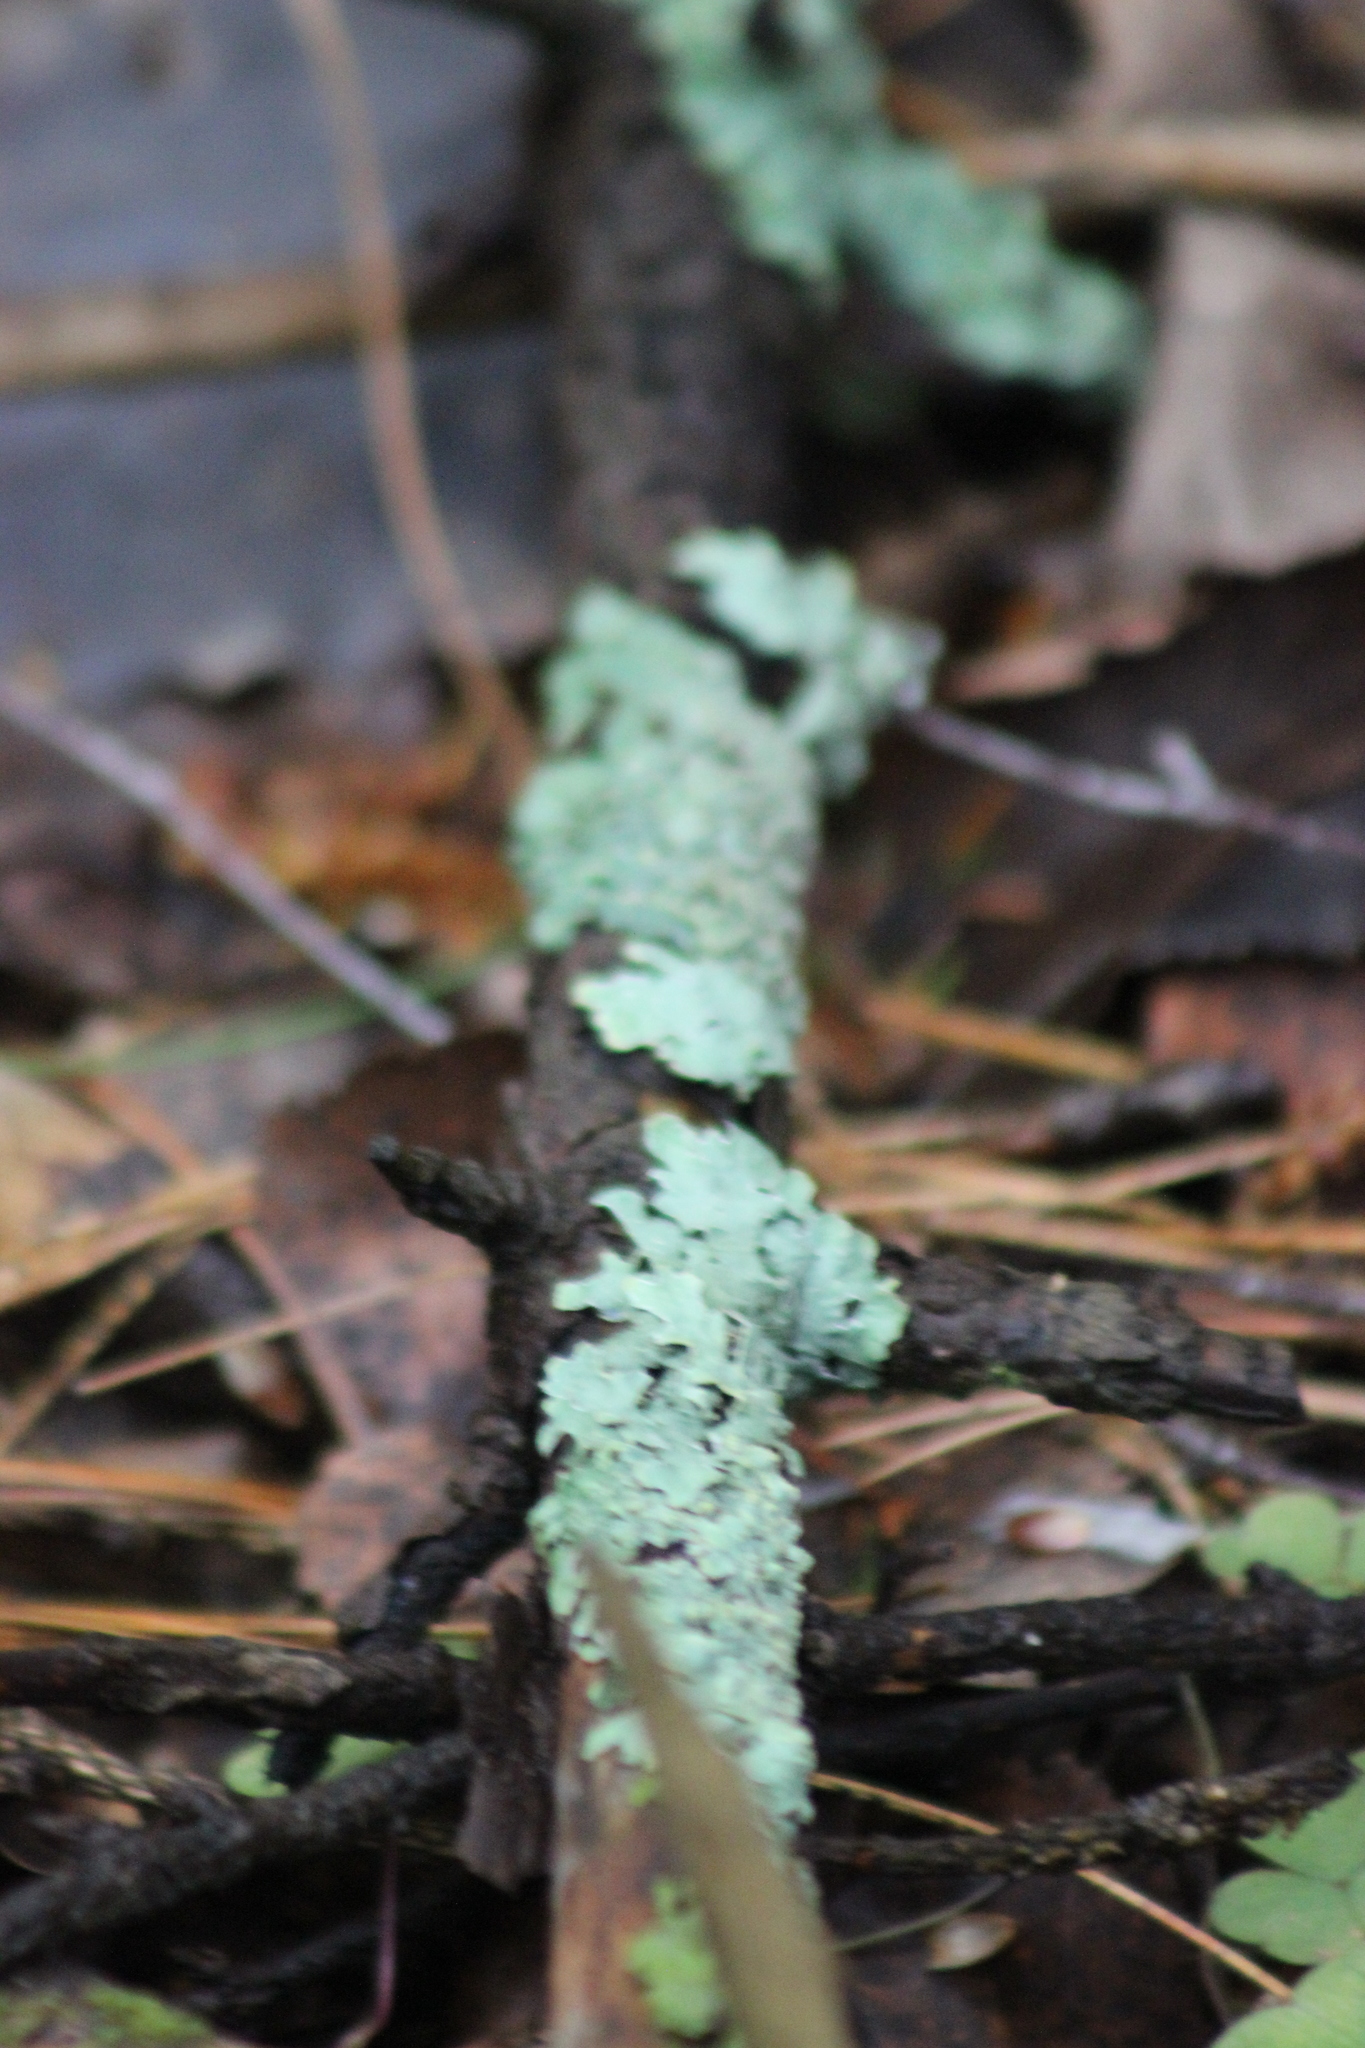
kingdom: Fungi
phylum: Ascomycota
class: Lecanoromycetes
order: Lecanorales
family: Parmeliaceae
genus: Parmelia
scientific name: Parmelia sulcata
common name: Netted shield lichen
